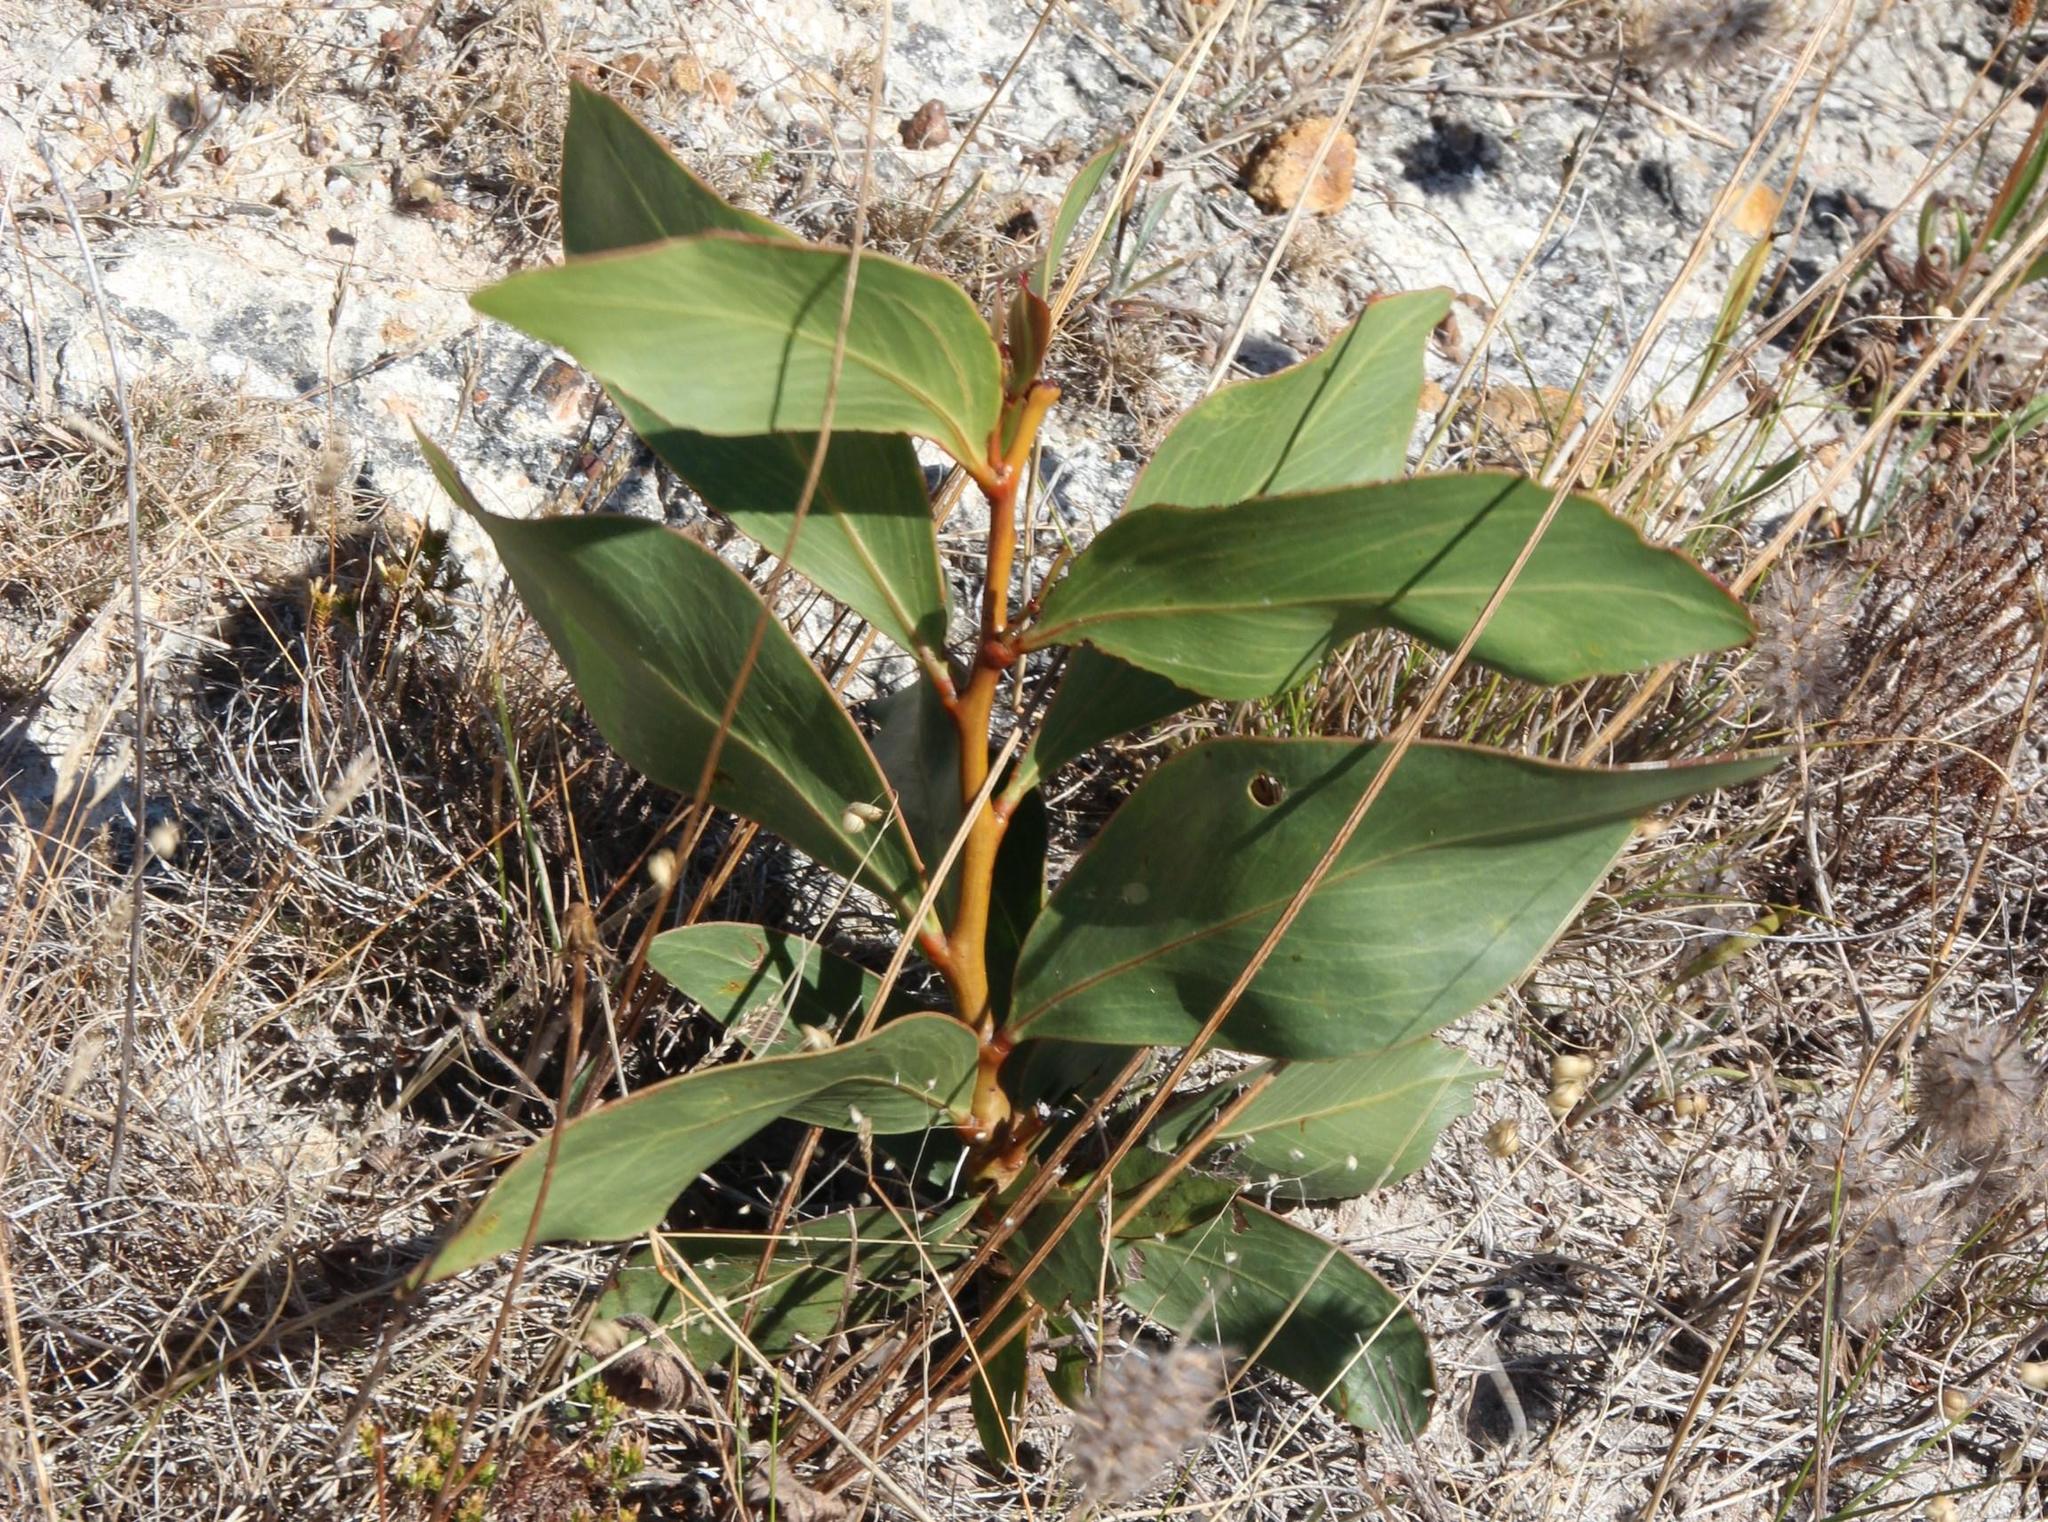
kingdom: Plantae
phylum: Tracheophyta
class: Magnoliopsida
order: Fabales
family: Fabaceae
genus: Acacia
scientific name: Acacia pycnantha
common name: Golden wattle
